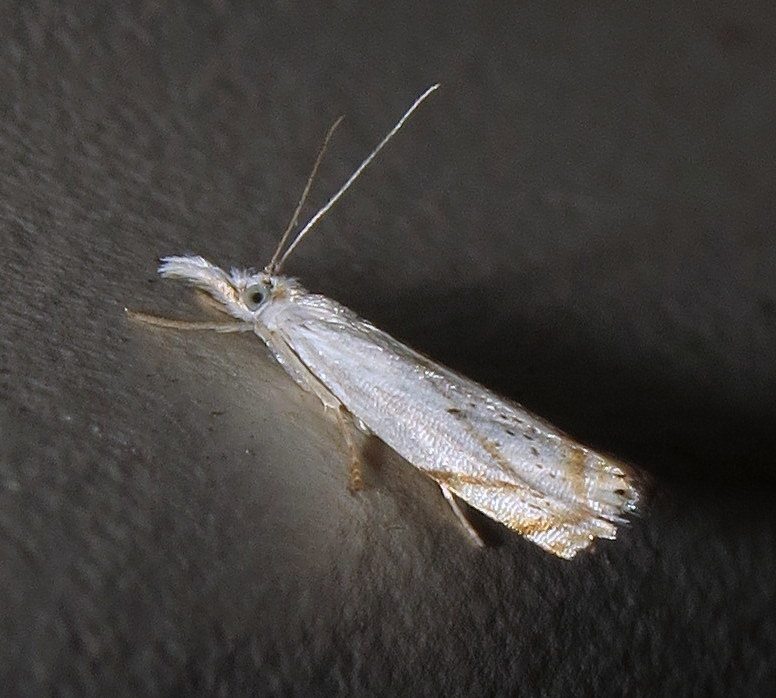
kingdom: Animalia
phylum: Arthropoda
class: Insecta
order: Lepidoptera
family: Crambidae
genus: Crambus
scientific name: Crambus albellus
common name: Small white grass-veneer
